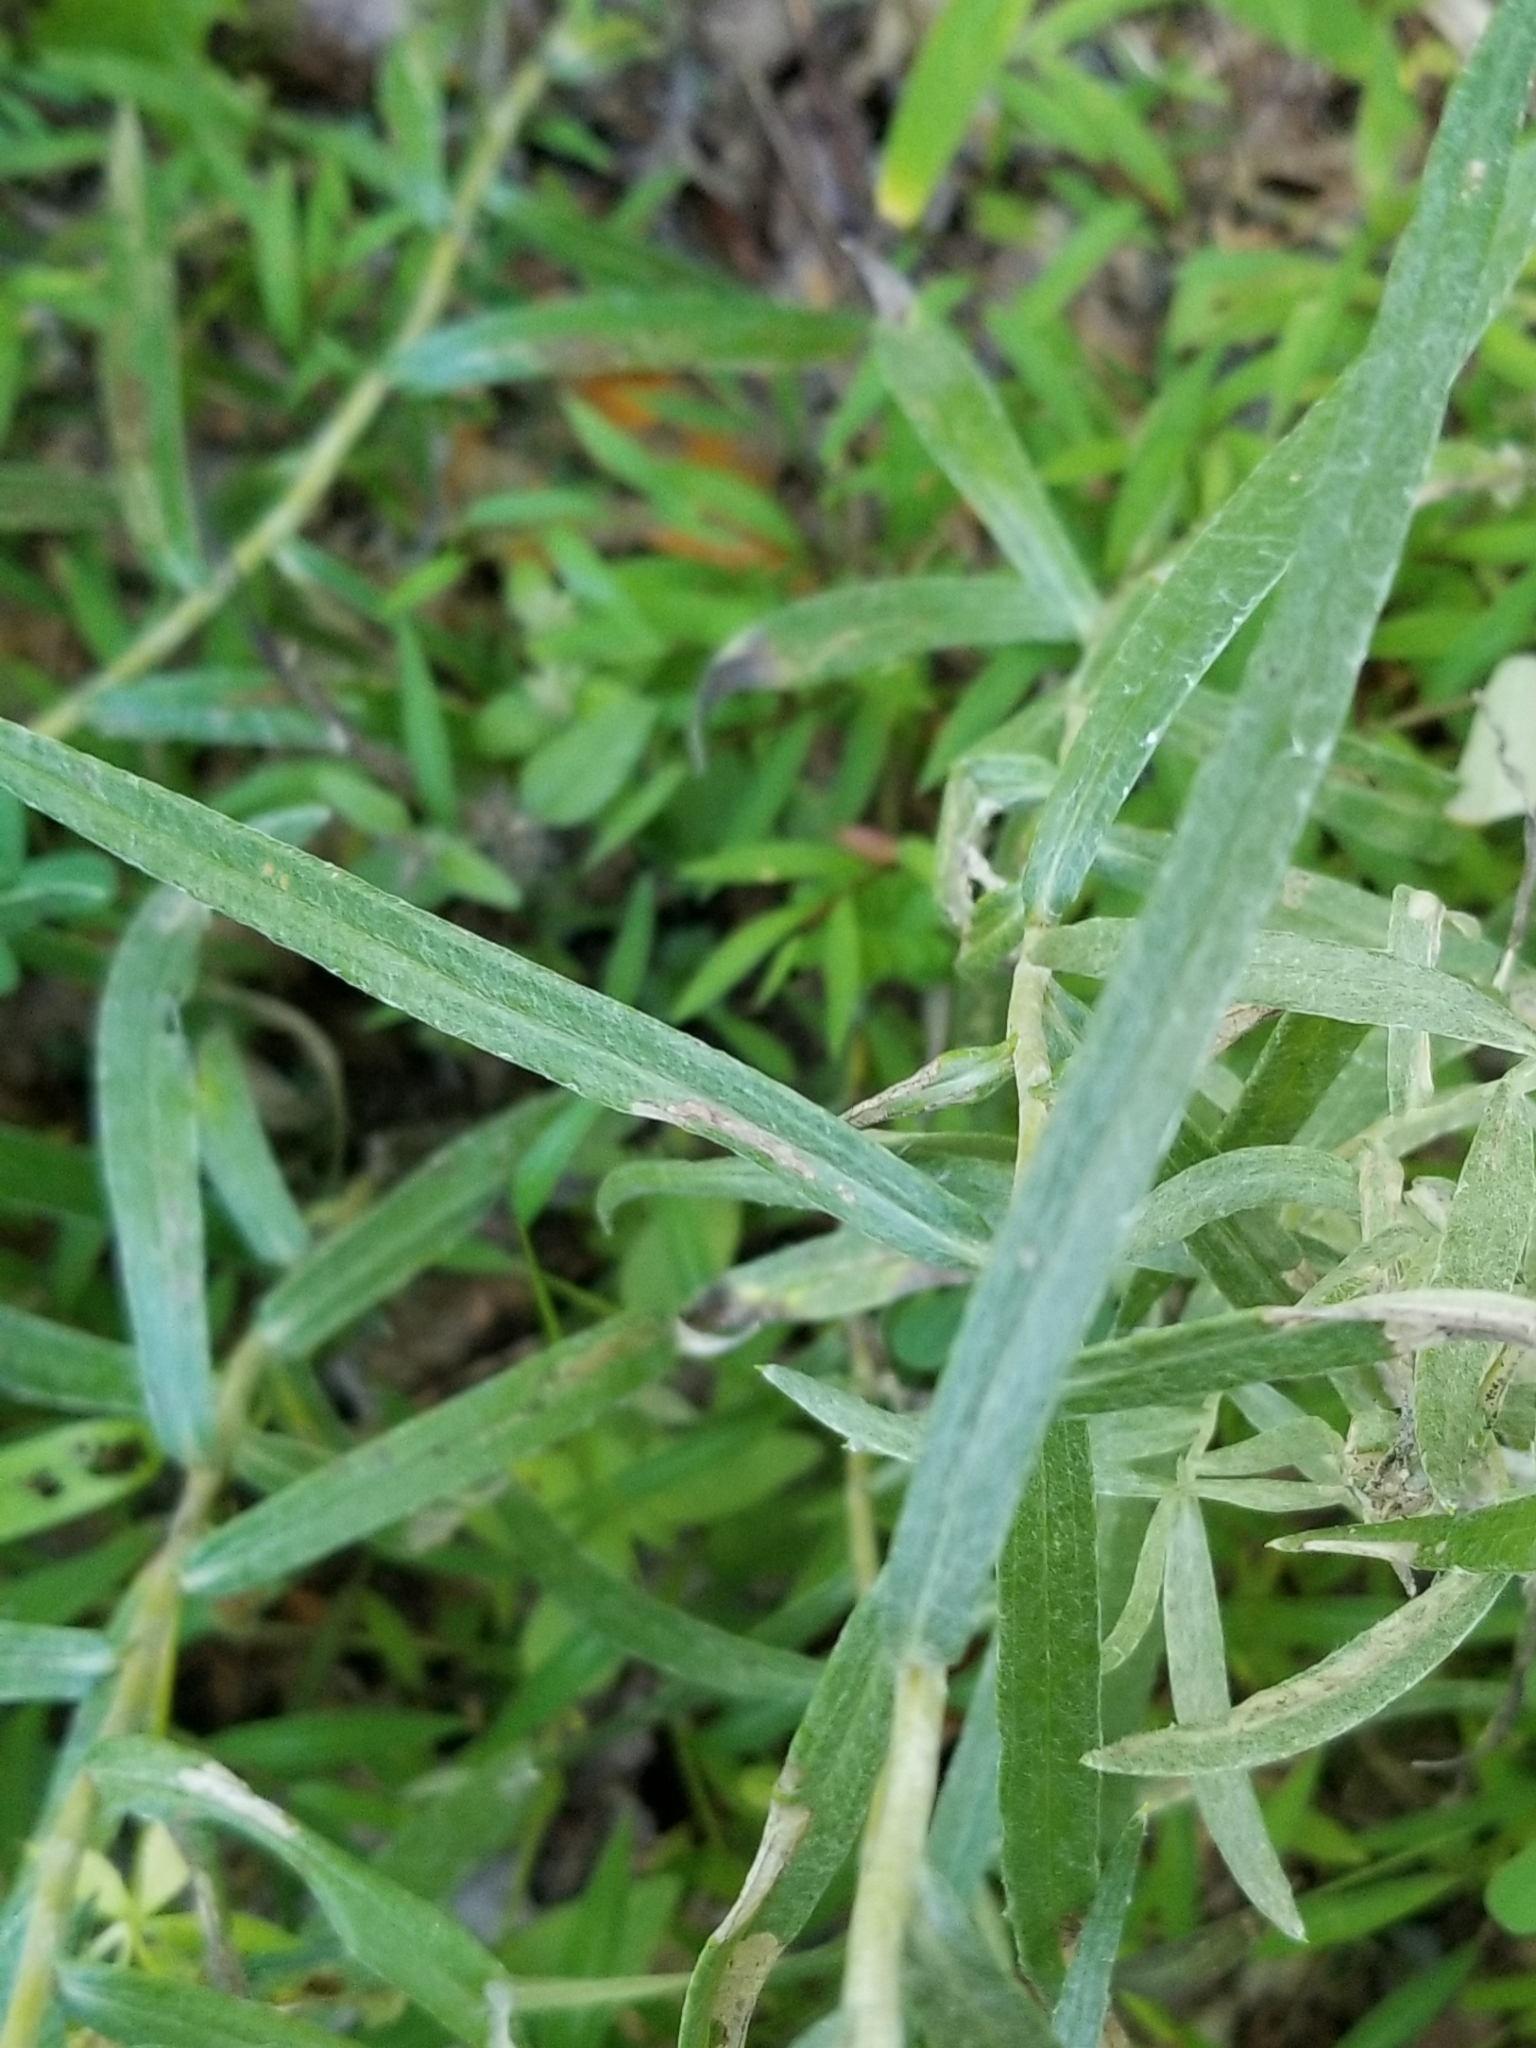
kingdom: Plantae
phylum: Tracheophyta
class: Magnoliopsida
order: Asterales
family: Asteraceae
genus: Anaphalis
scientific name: Anaphalis margaritacea
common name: Pearly everlasting
